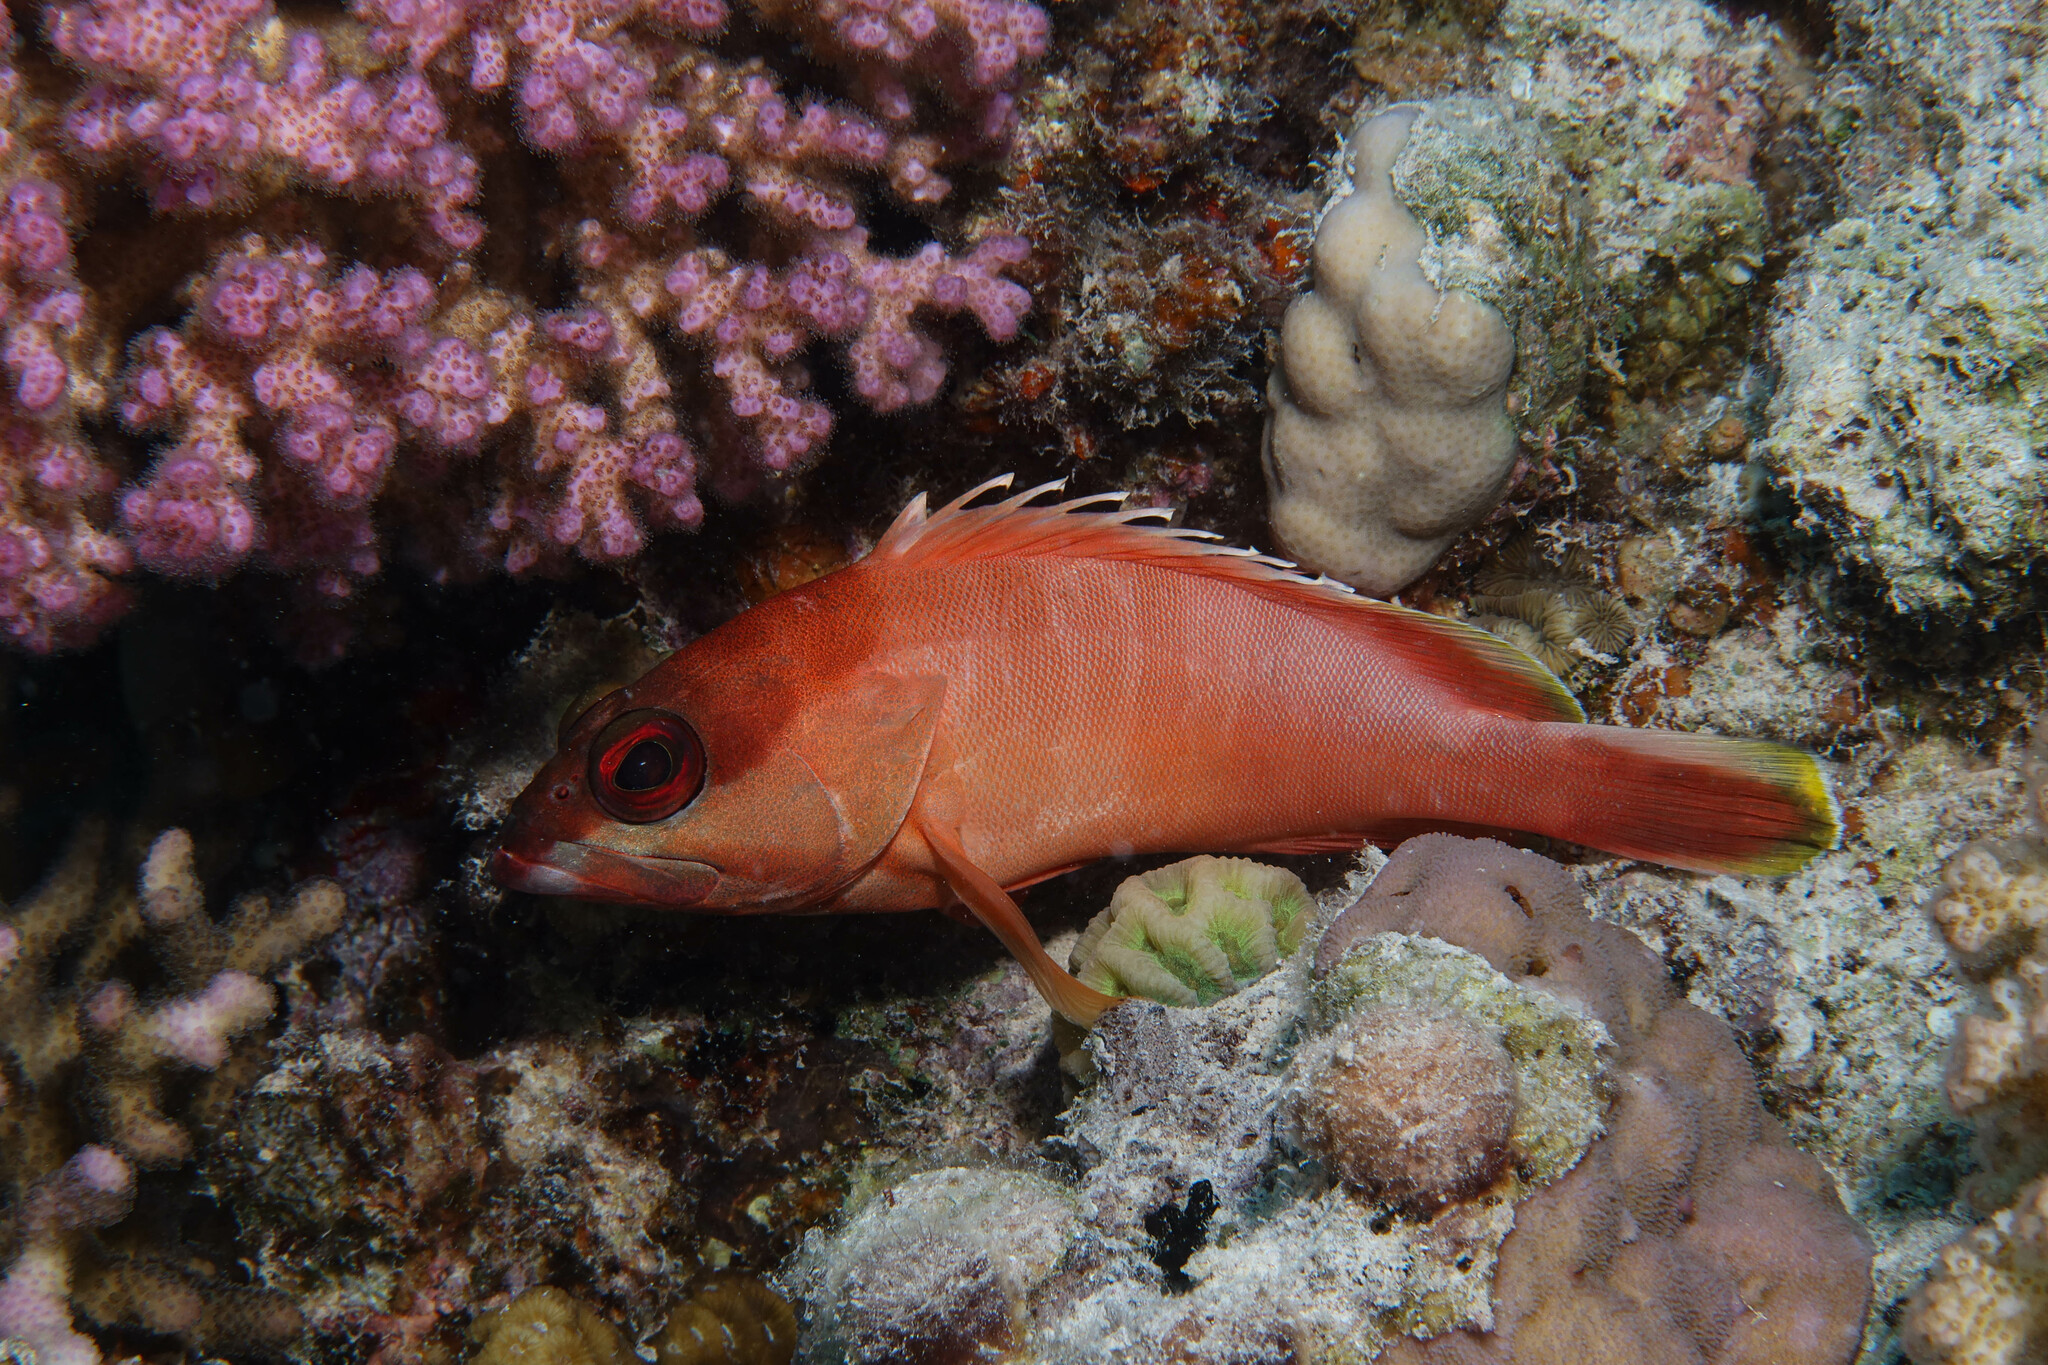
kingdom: Animalia
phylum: Chordata
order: Perciformes
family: Serranidae
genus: Epinephelus
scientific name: Epinephelus fasciatus
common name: Blacktip grouper
